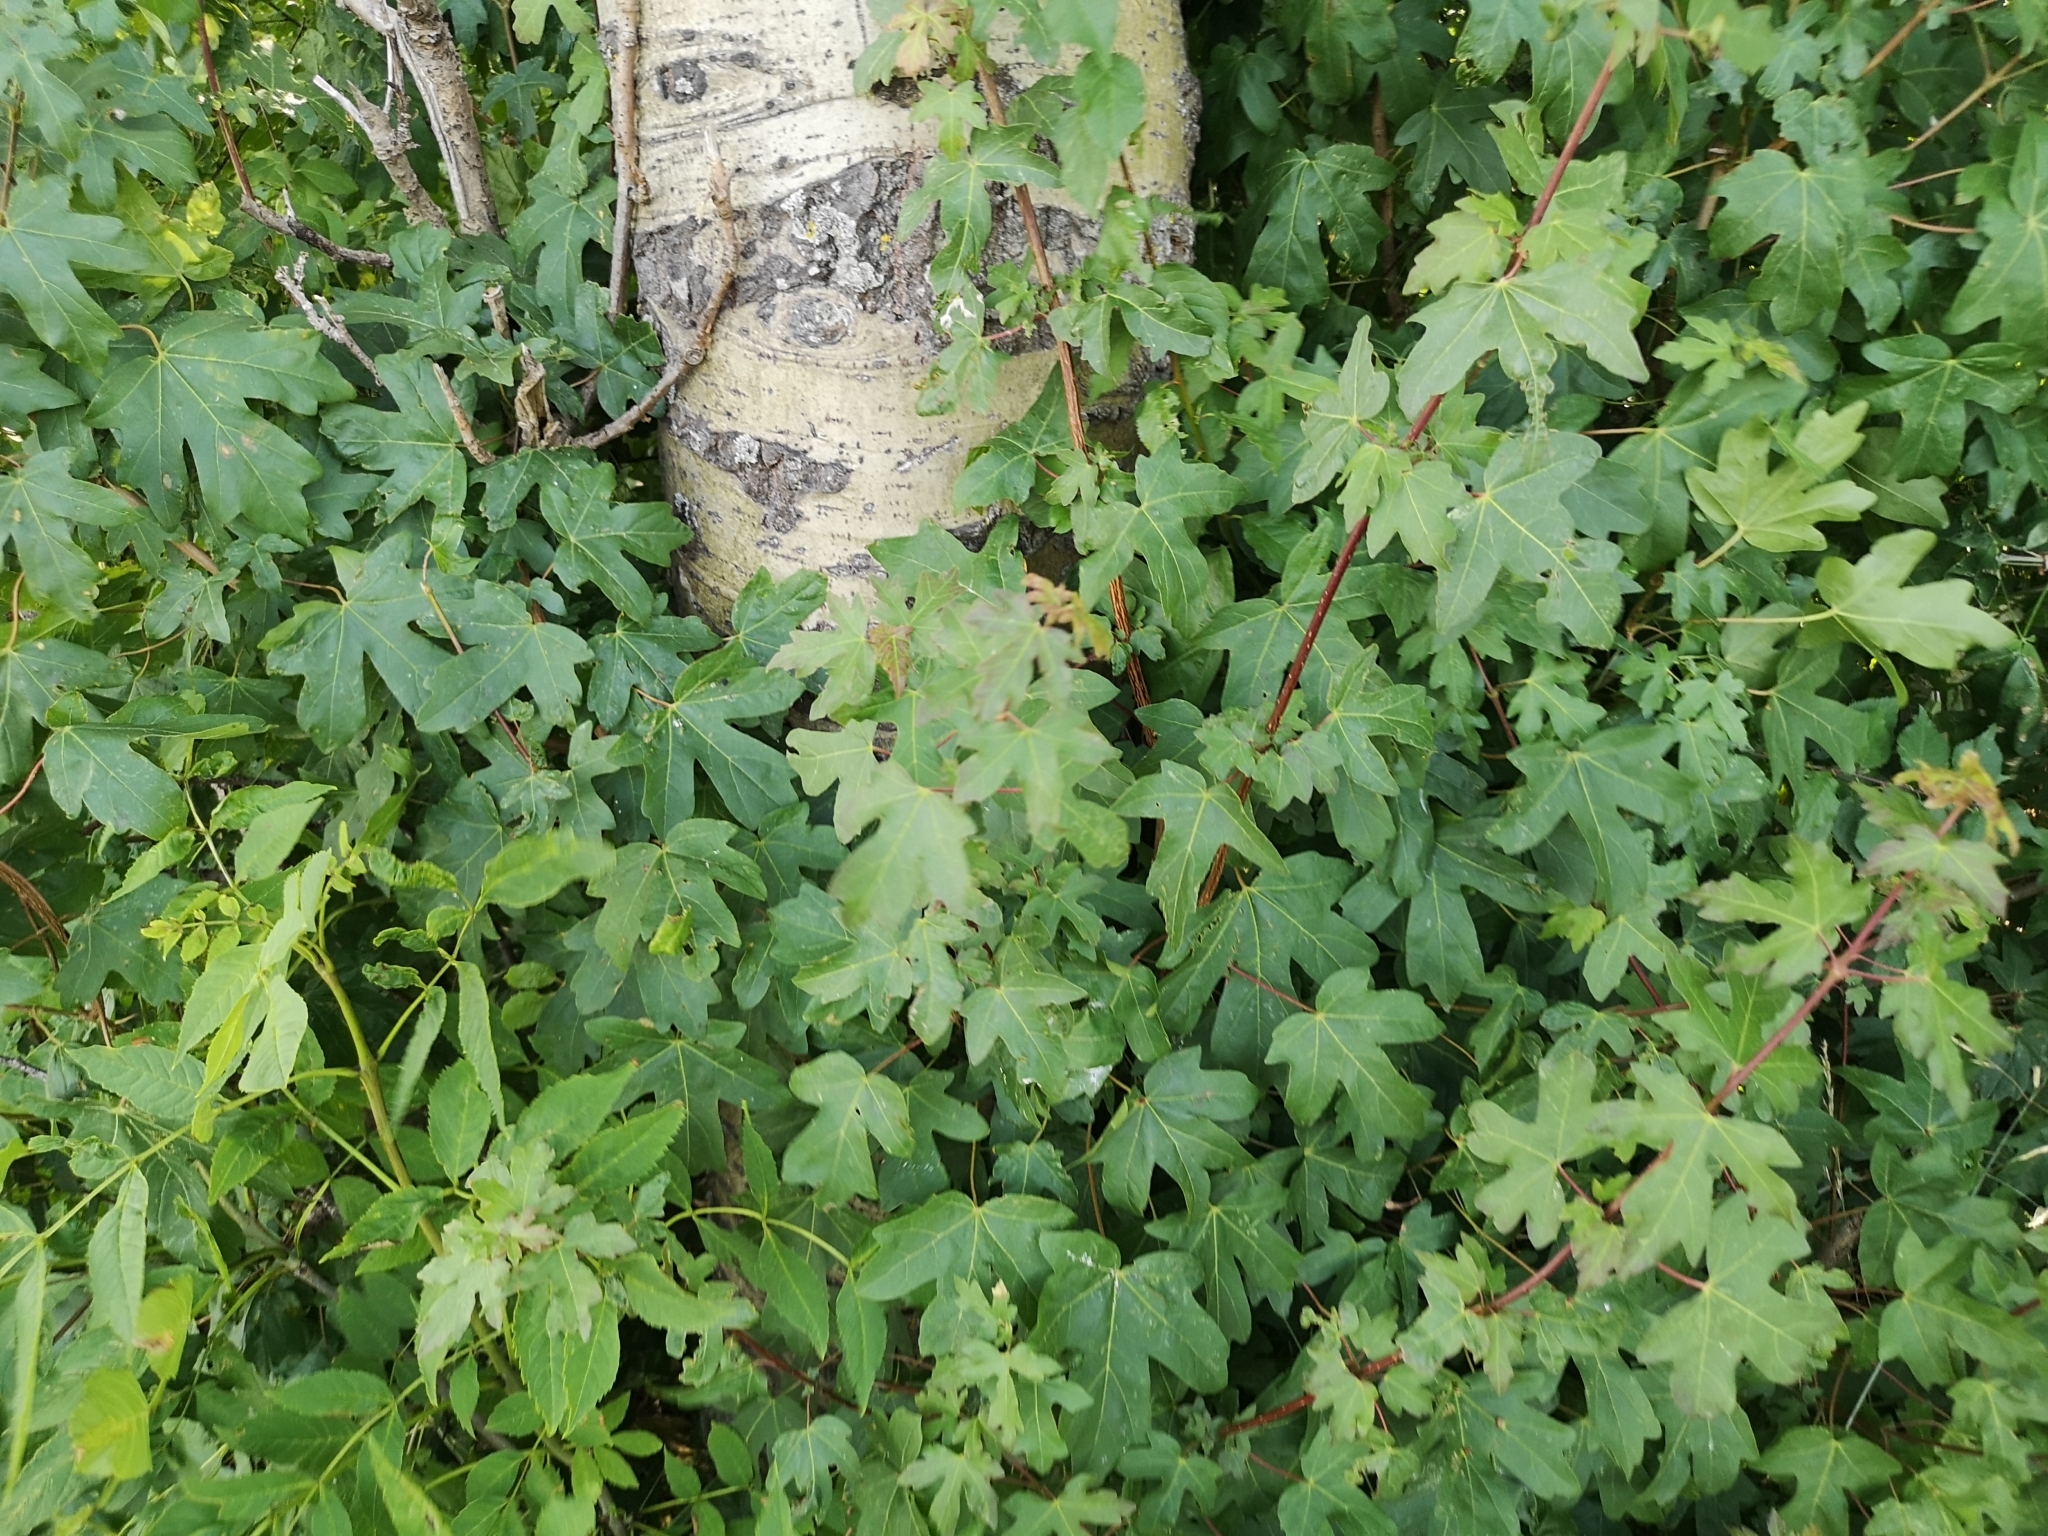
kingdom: Plantae
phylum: Tracheophyta
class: Magnoliopsida
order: Sapindales
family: Sapindaceae
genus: Acer
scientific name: Acer campestre
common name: Field maple
